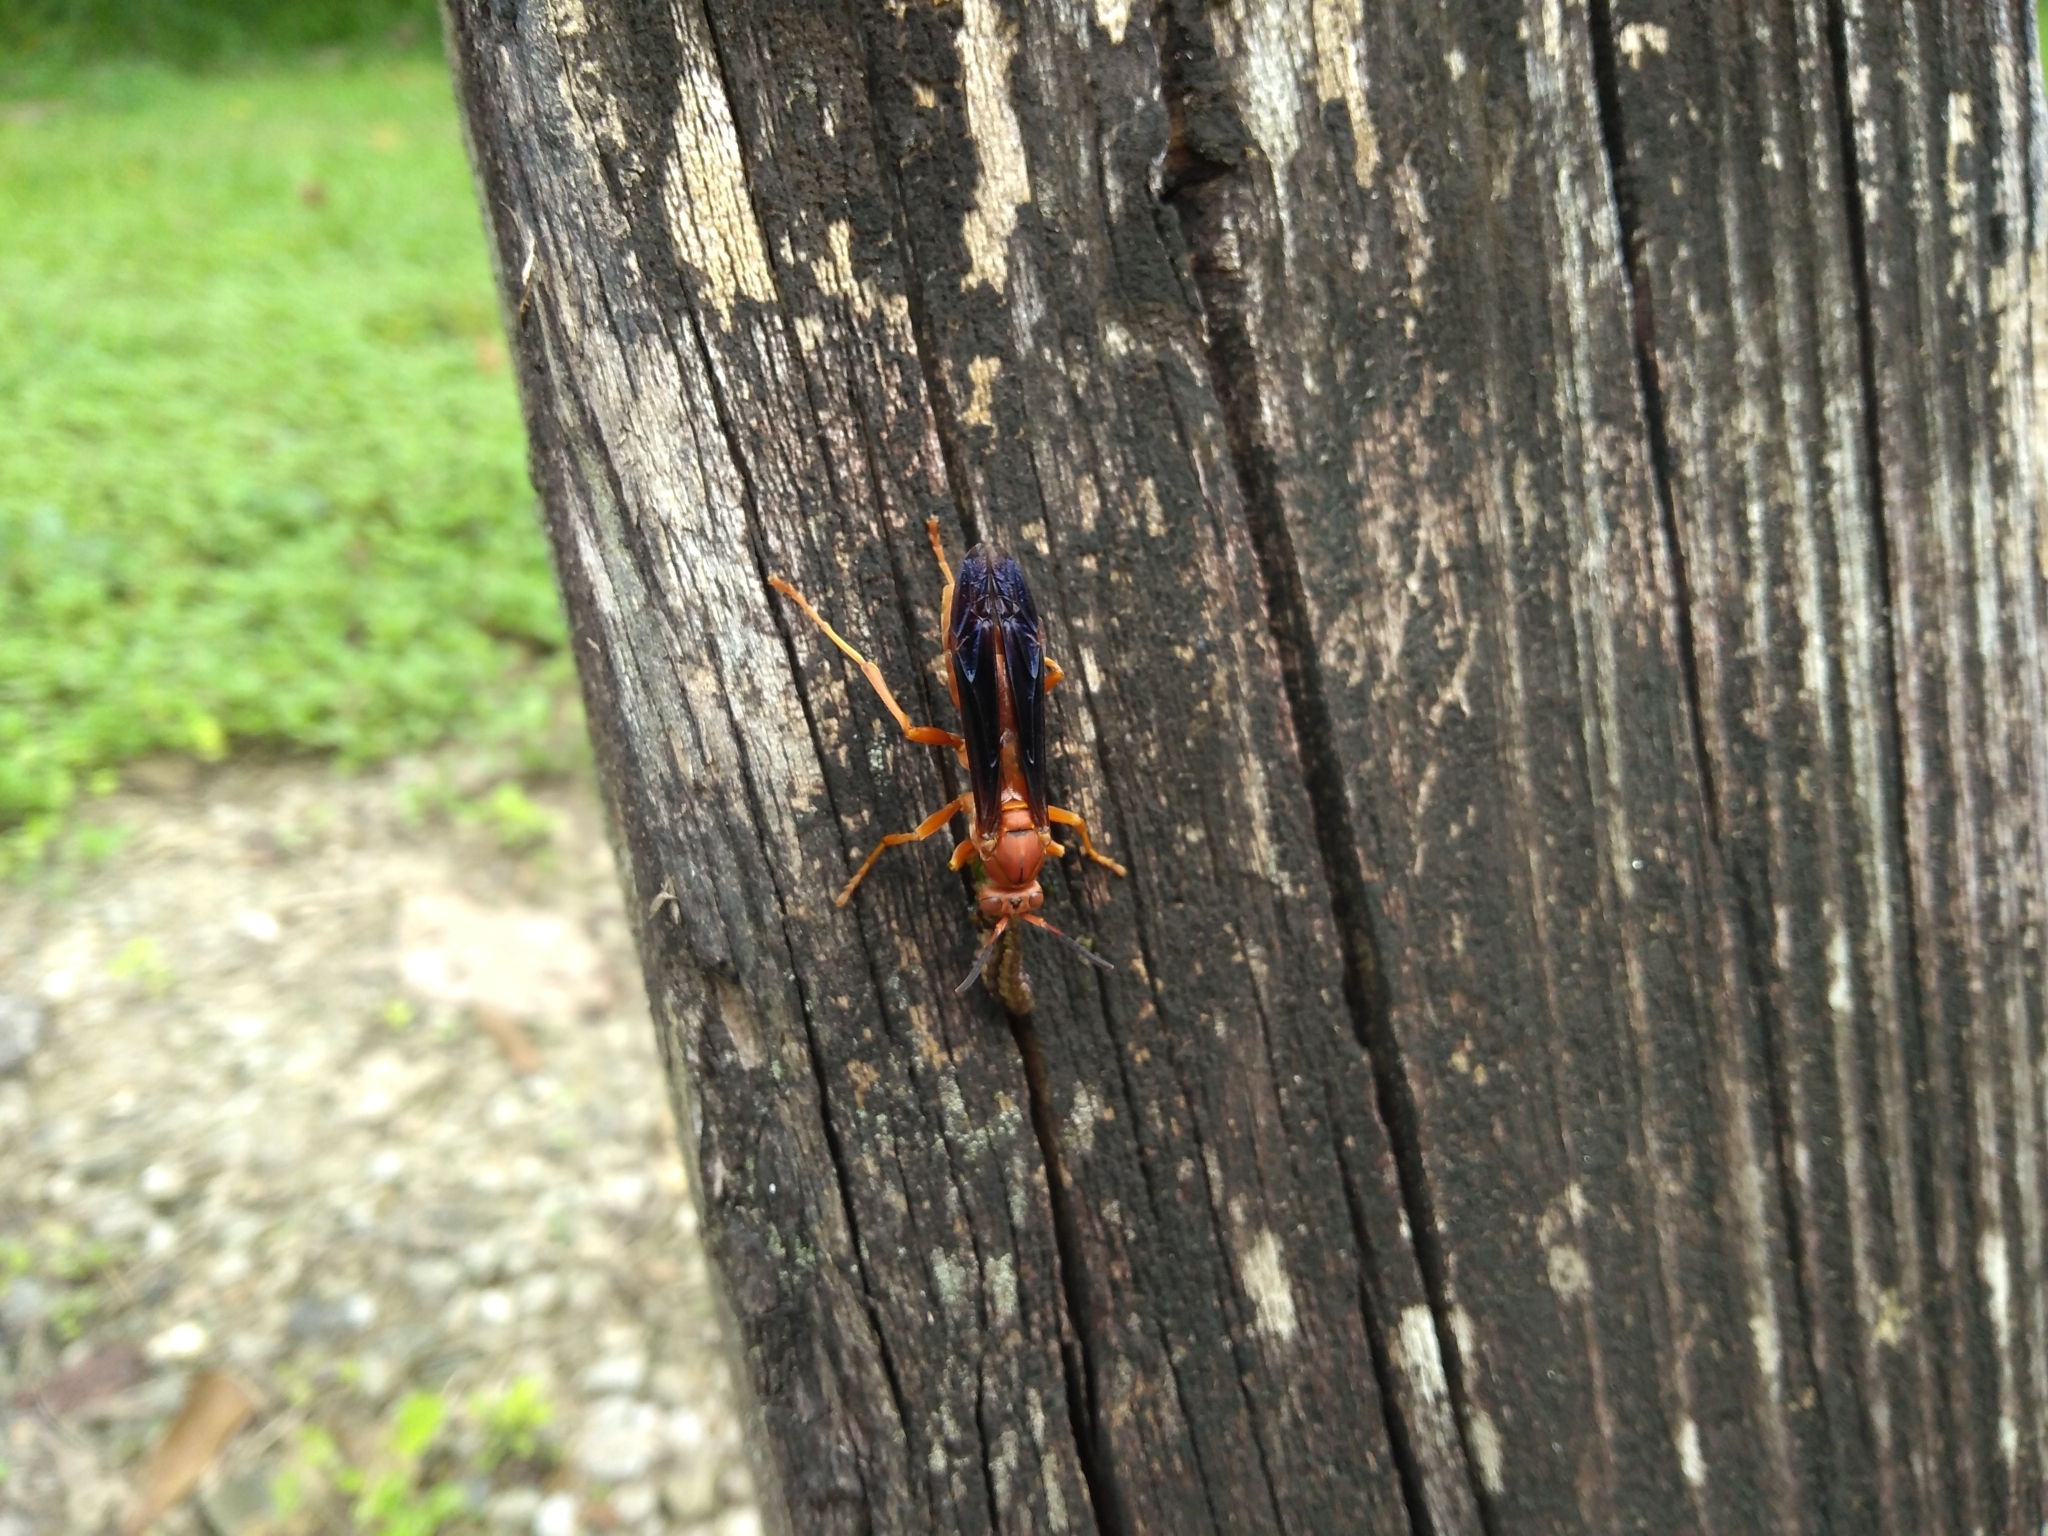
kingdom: Animalia
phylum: Arthropoda
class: Insecta
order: Hymenoptera
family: Vespidae
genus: Fuscopolistes
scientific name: Fuscopolistes
